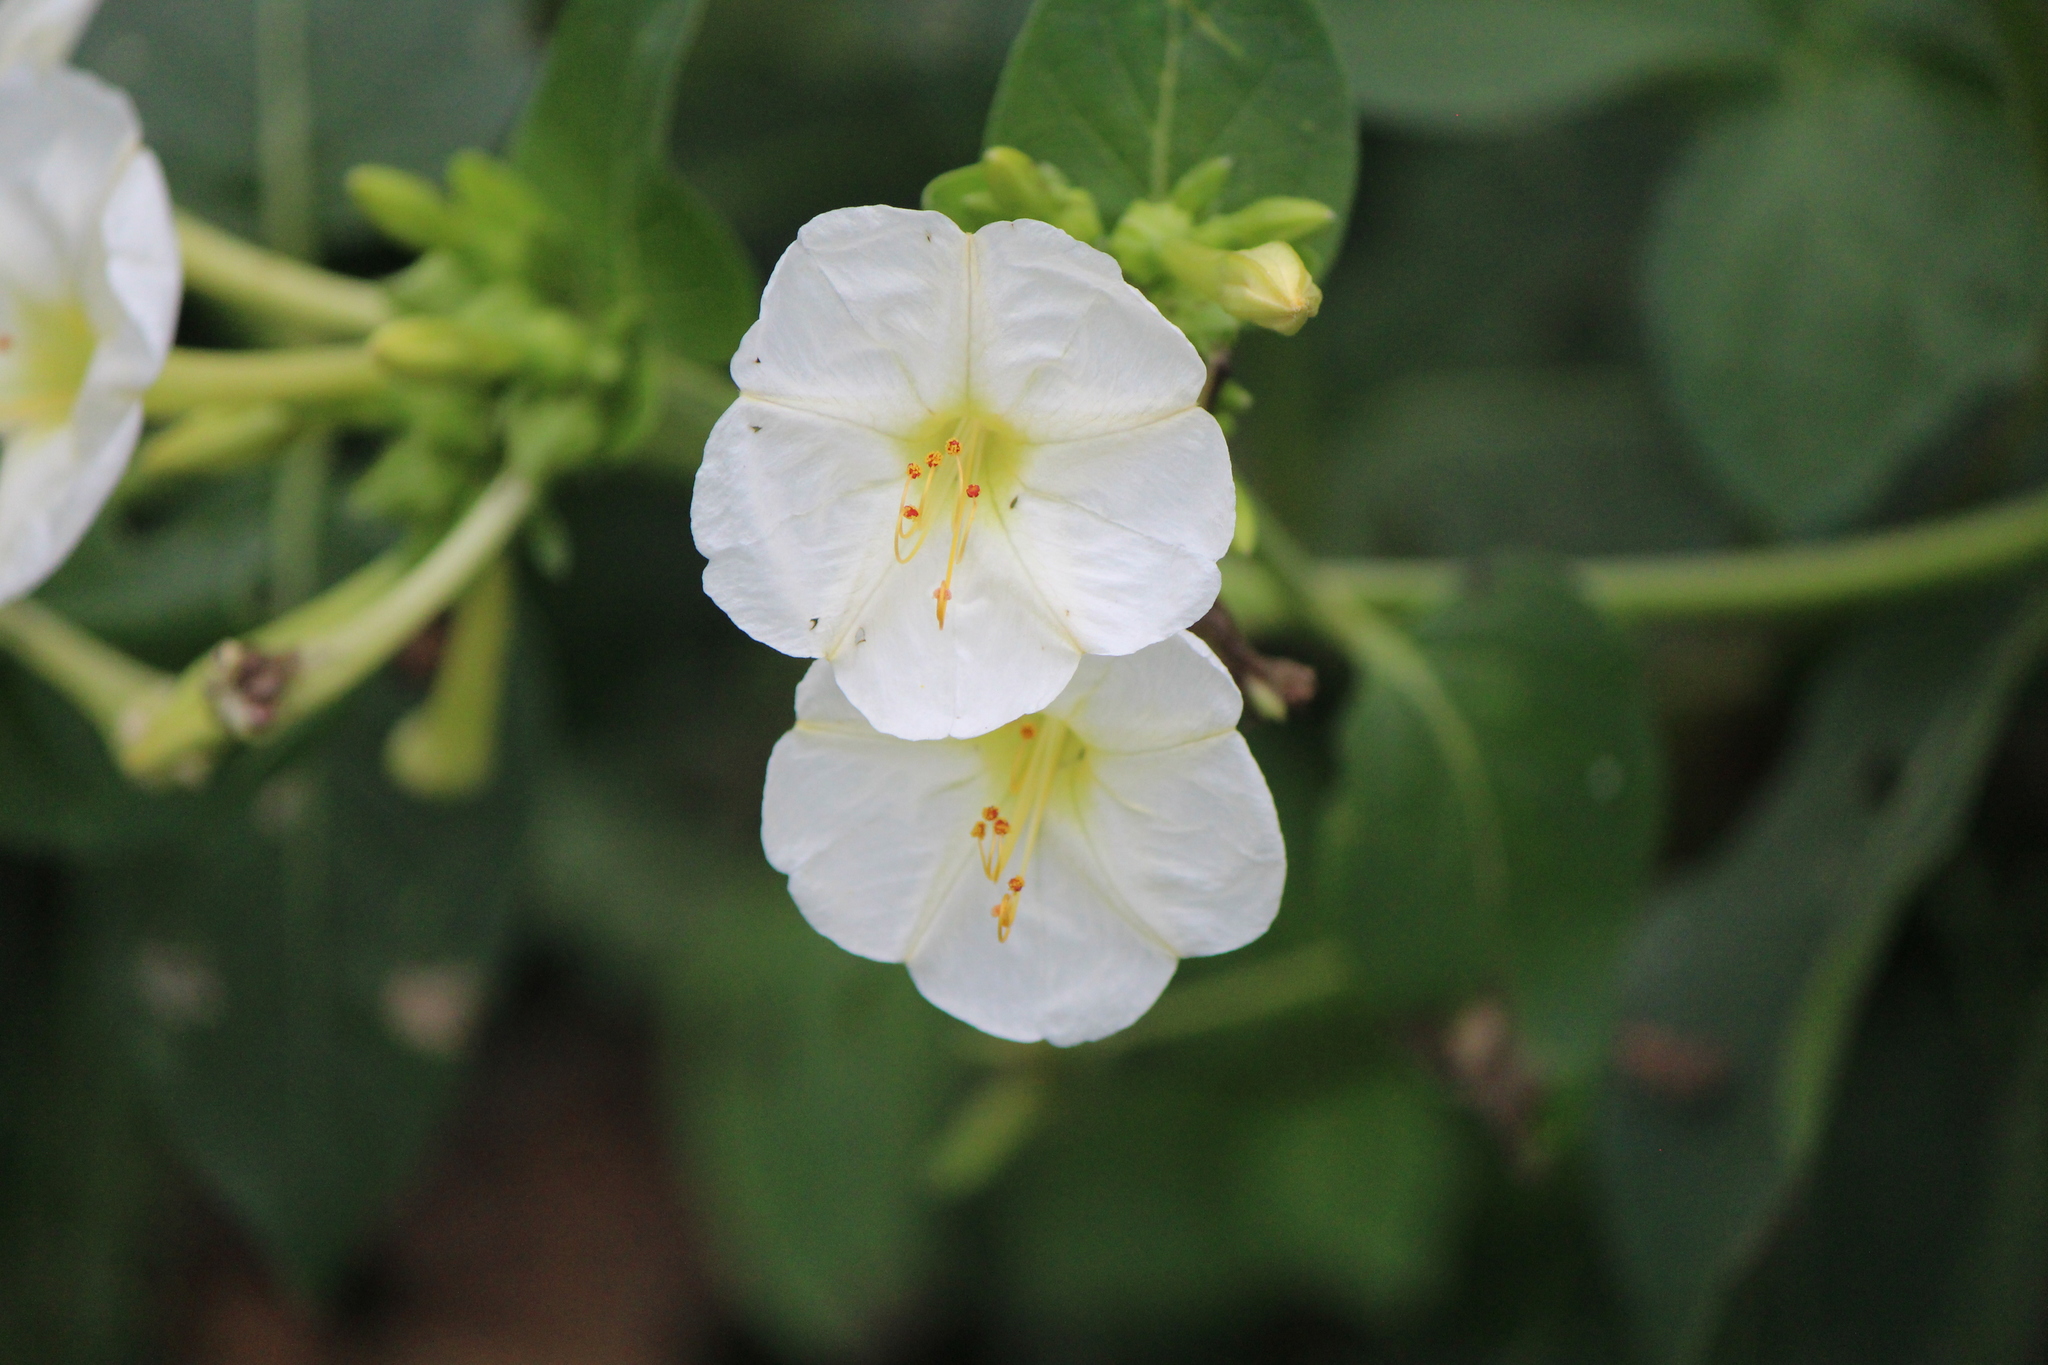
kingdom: Plantae
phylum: Tracheophyta
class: Magnoliopsida
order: Caryophyllales
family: Nyctaginaceae
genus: Mirabilis
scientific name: Mirabilis jalapa
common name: Marvel-of-peru
